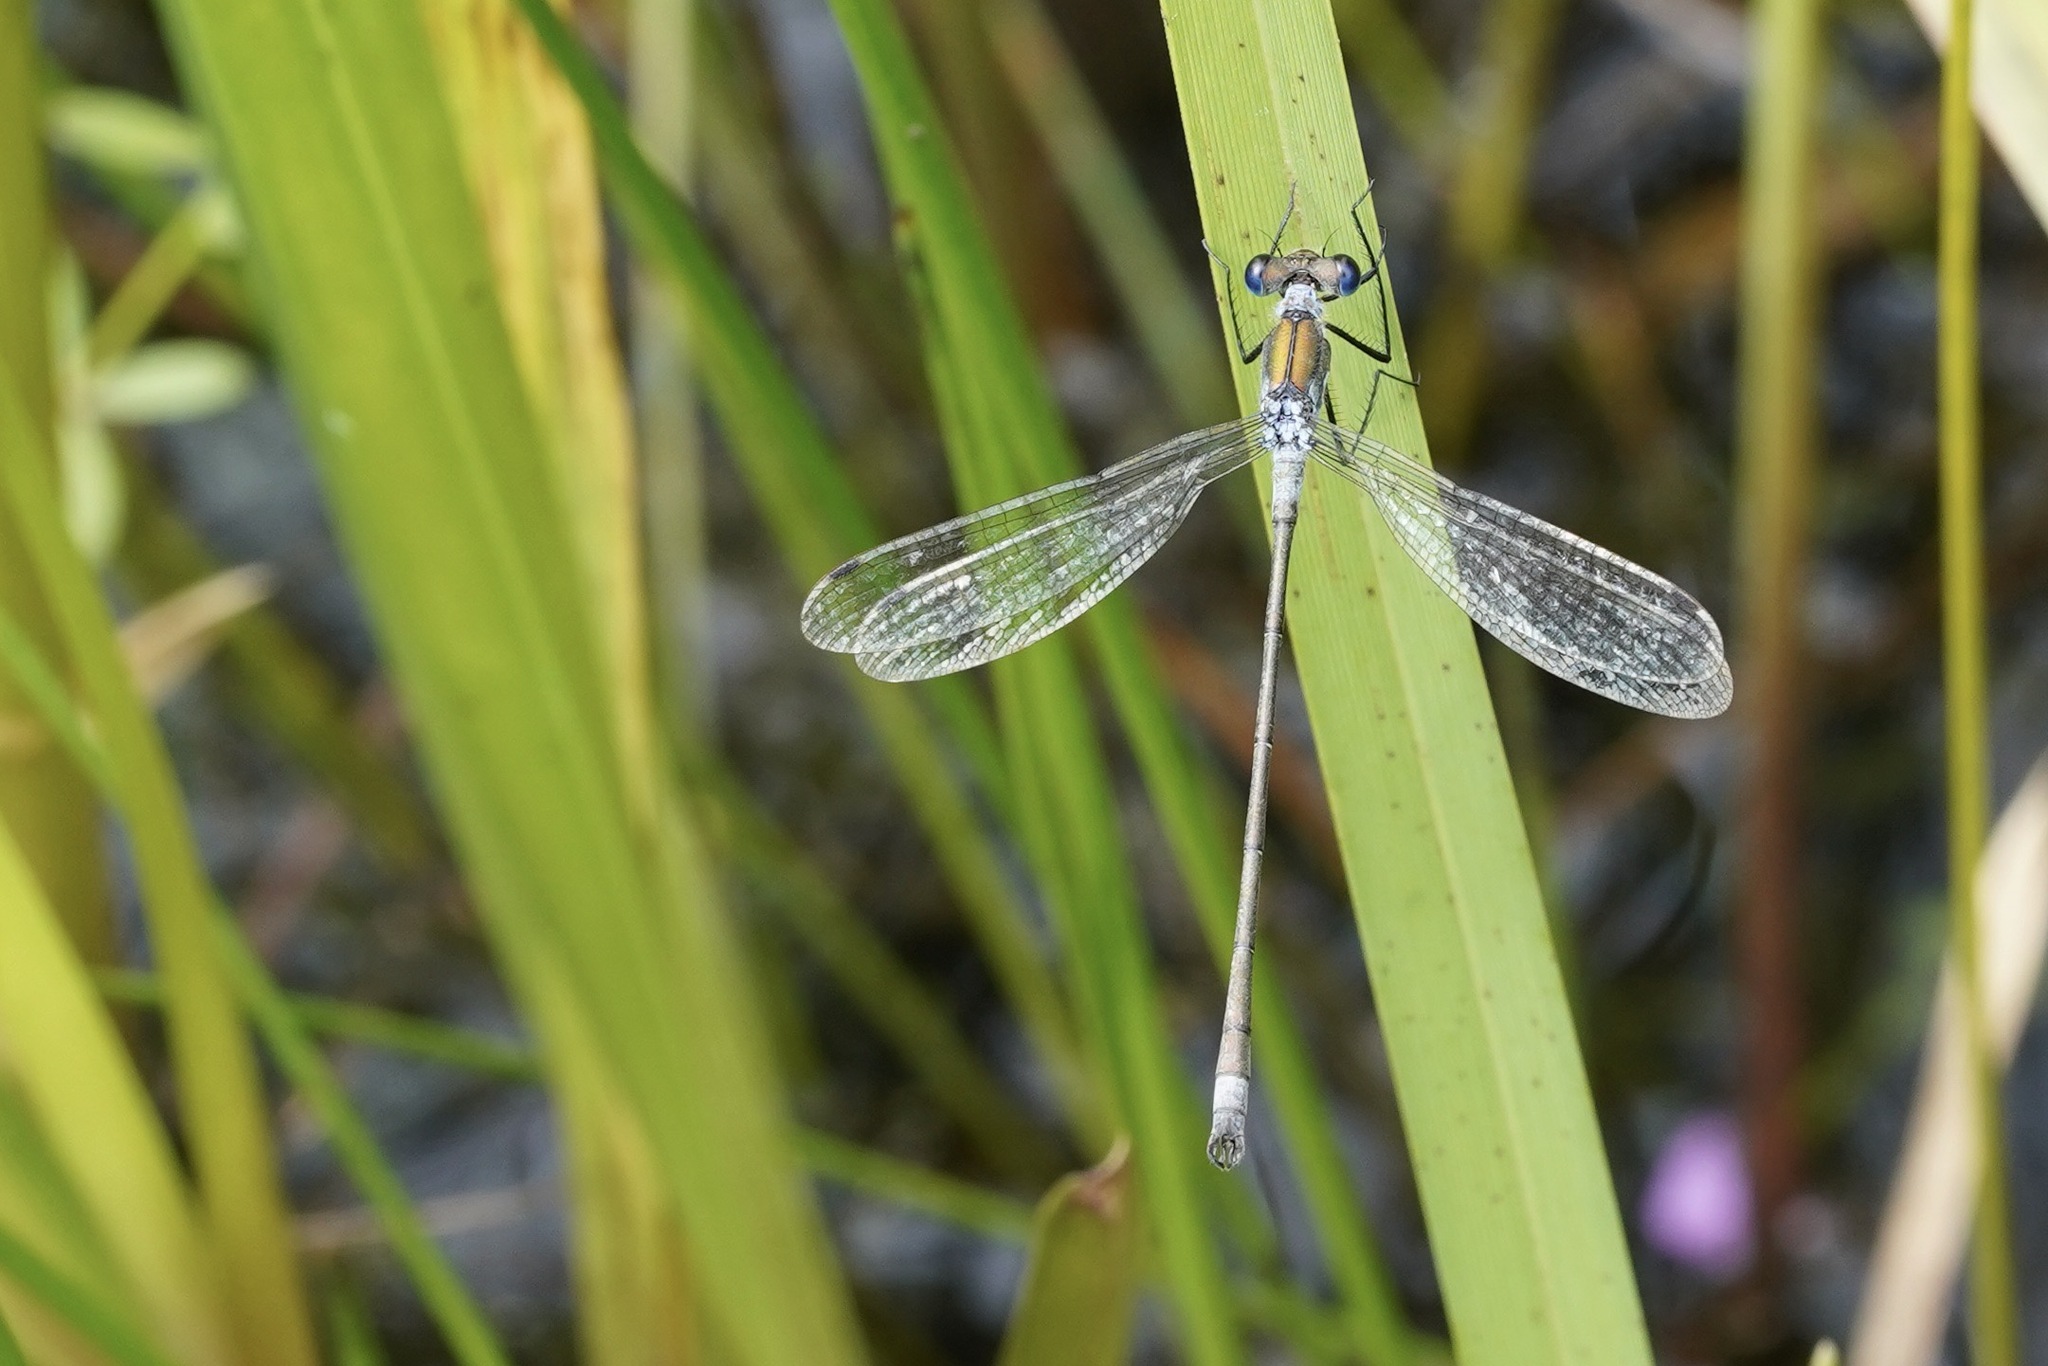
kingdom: Animalia
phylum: Arthropoda
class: Insecta
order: Odonata
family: Lestidae
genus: Lestes
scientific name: Lestes sponsa
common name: Common spreadwing
